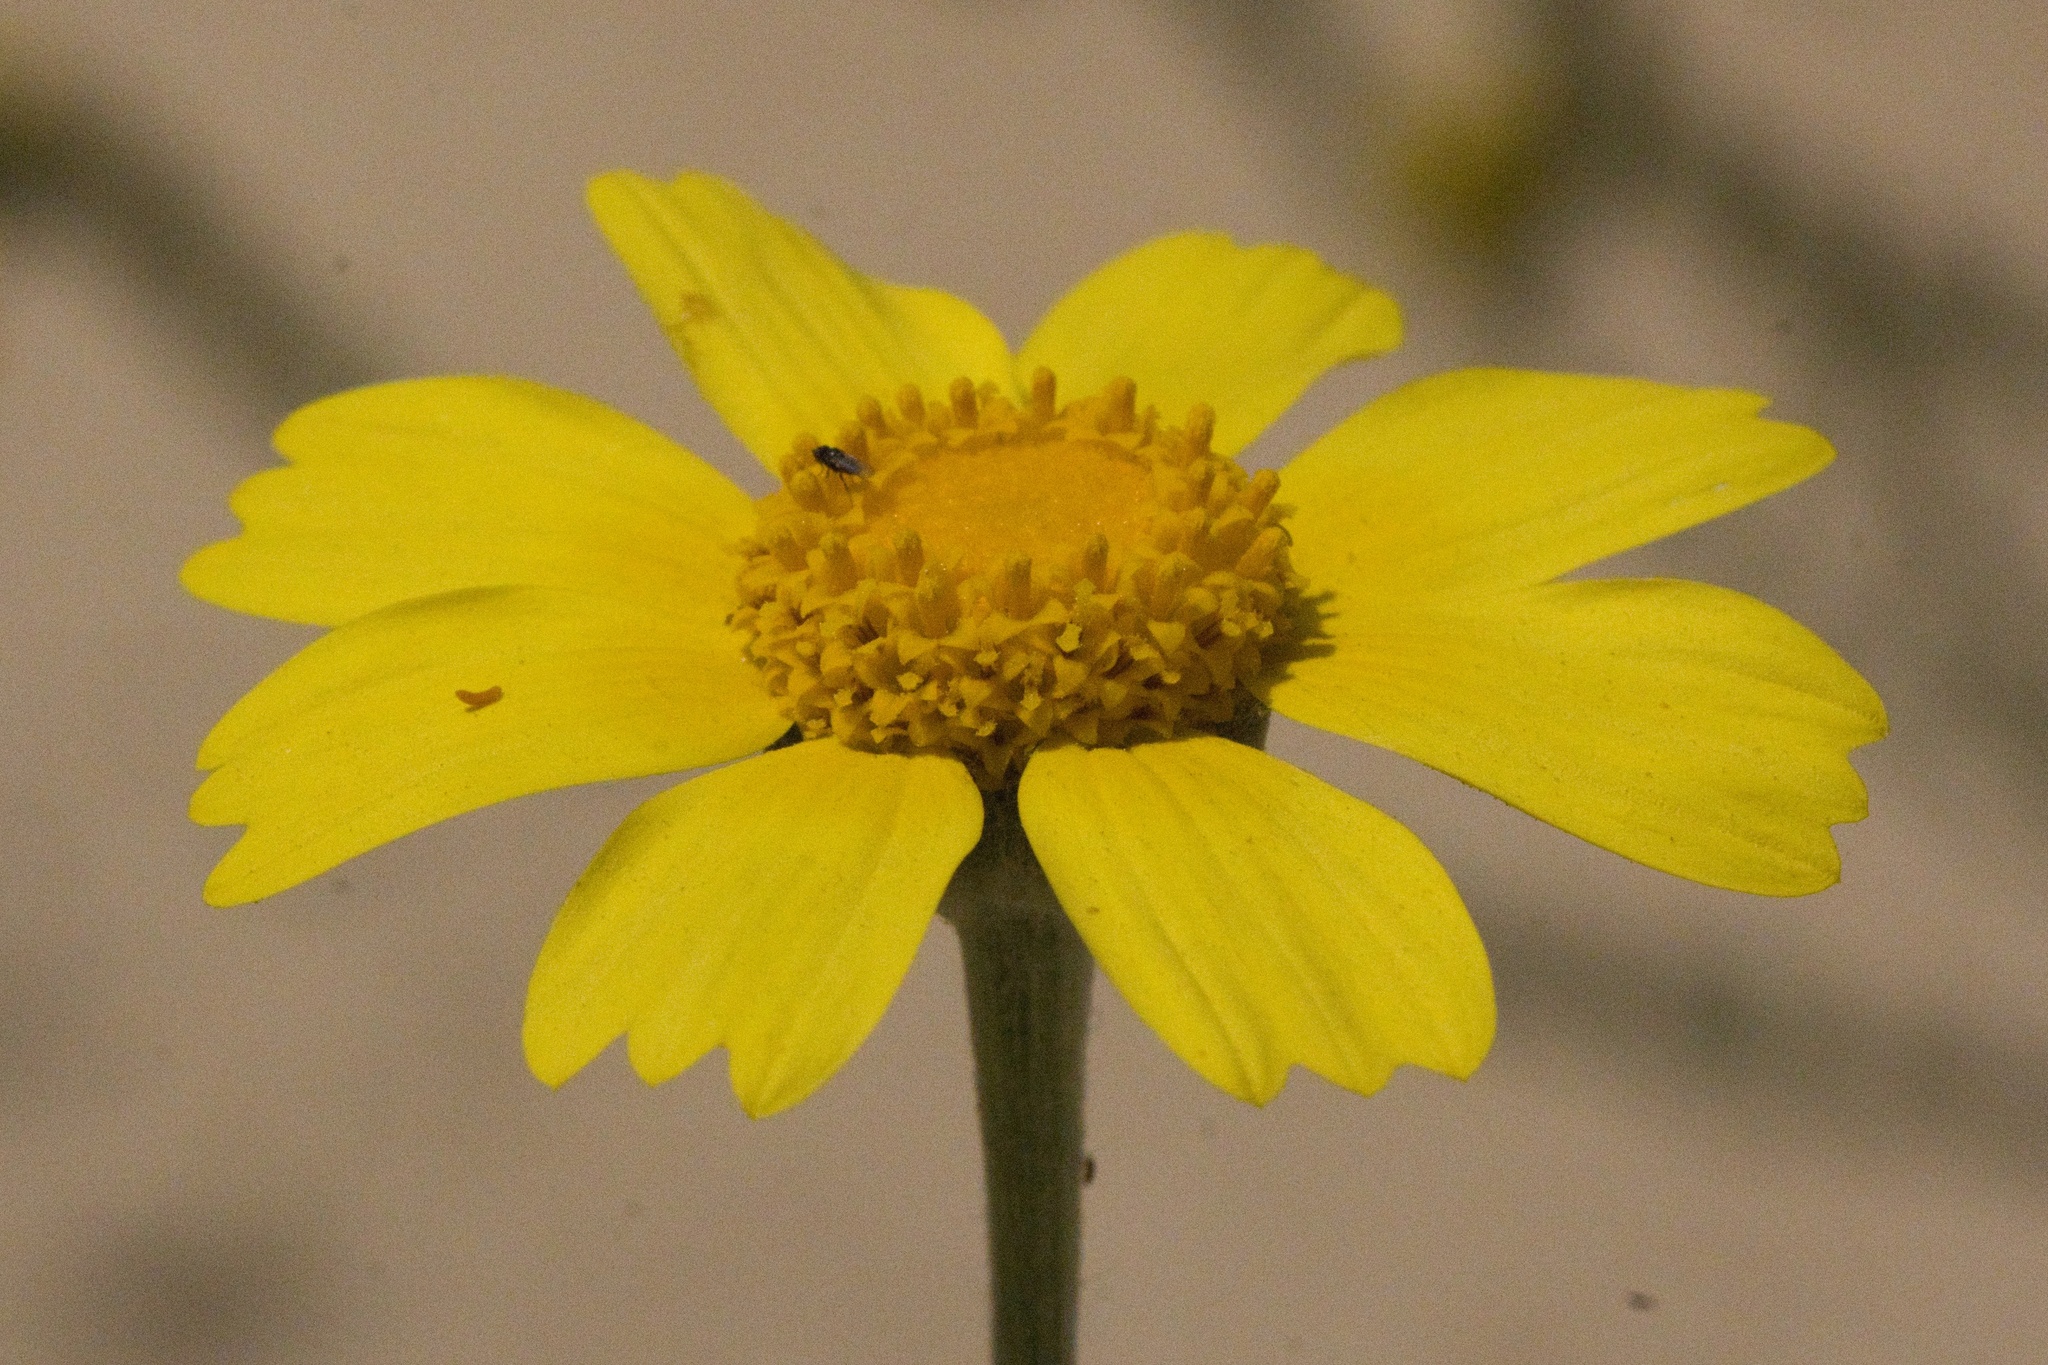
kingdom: Plantae
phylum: Tracheophyta
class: Magnoliopsida
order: Asterales
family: Asteraceae
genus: Monolopia
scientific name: Monolopia lanceolata
